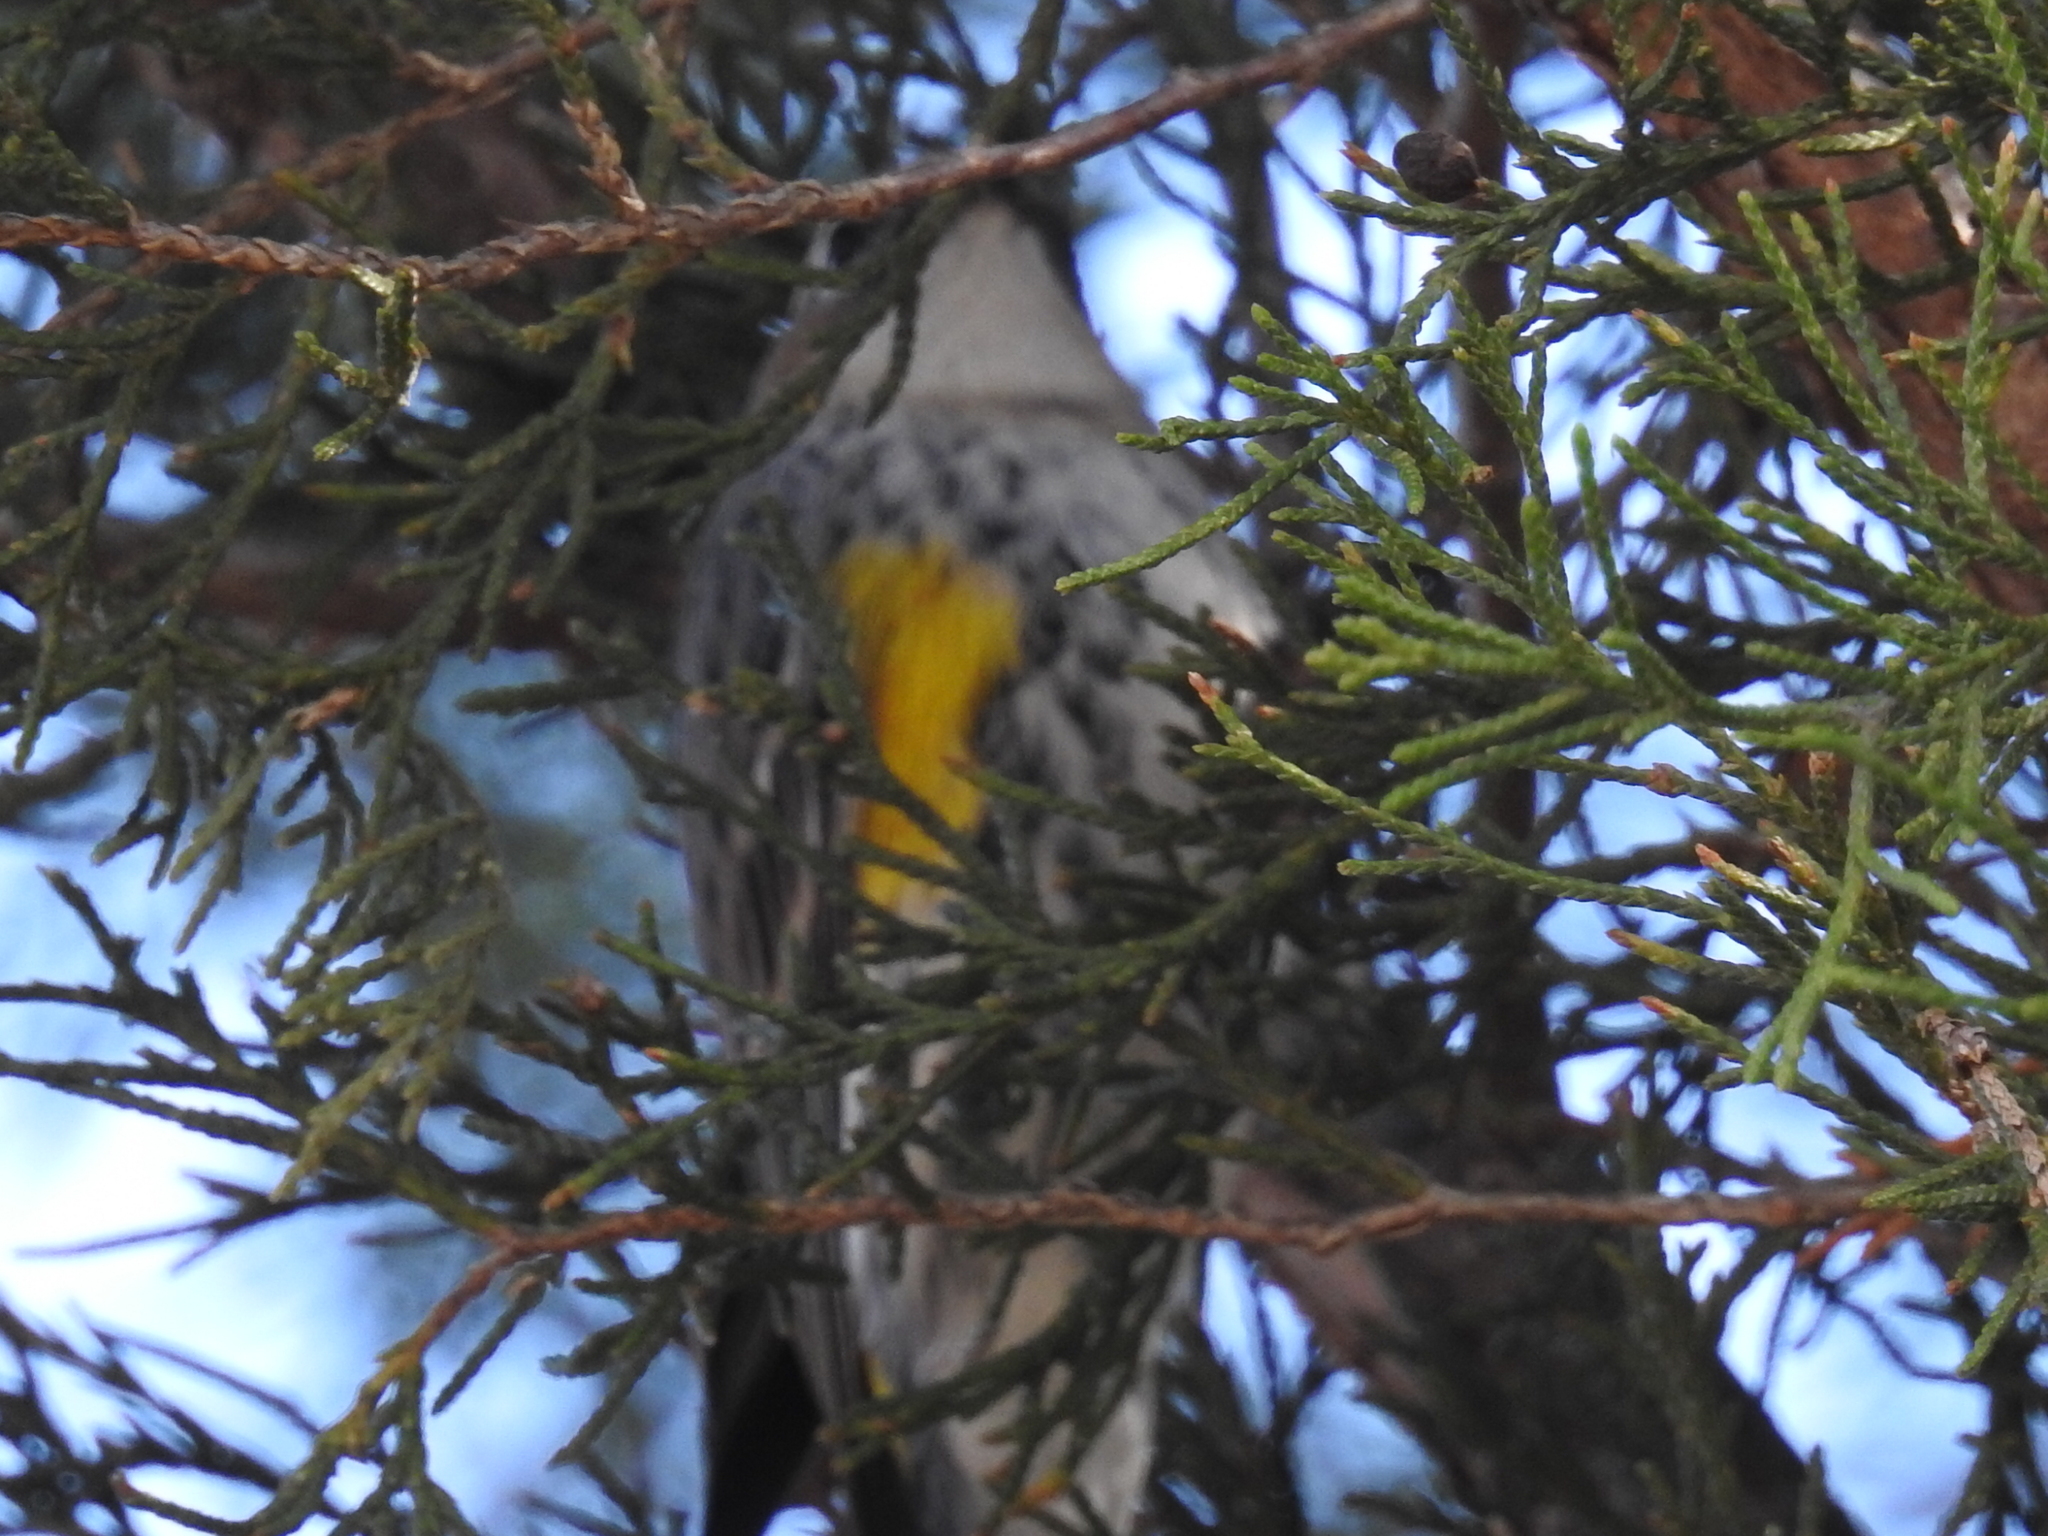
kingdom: Animalia
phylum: Chordata
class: Aves
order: Passeriformes
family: Parulidae
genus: Setophaga
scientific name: Setophaga coronata
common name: Myrtle warbler
